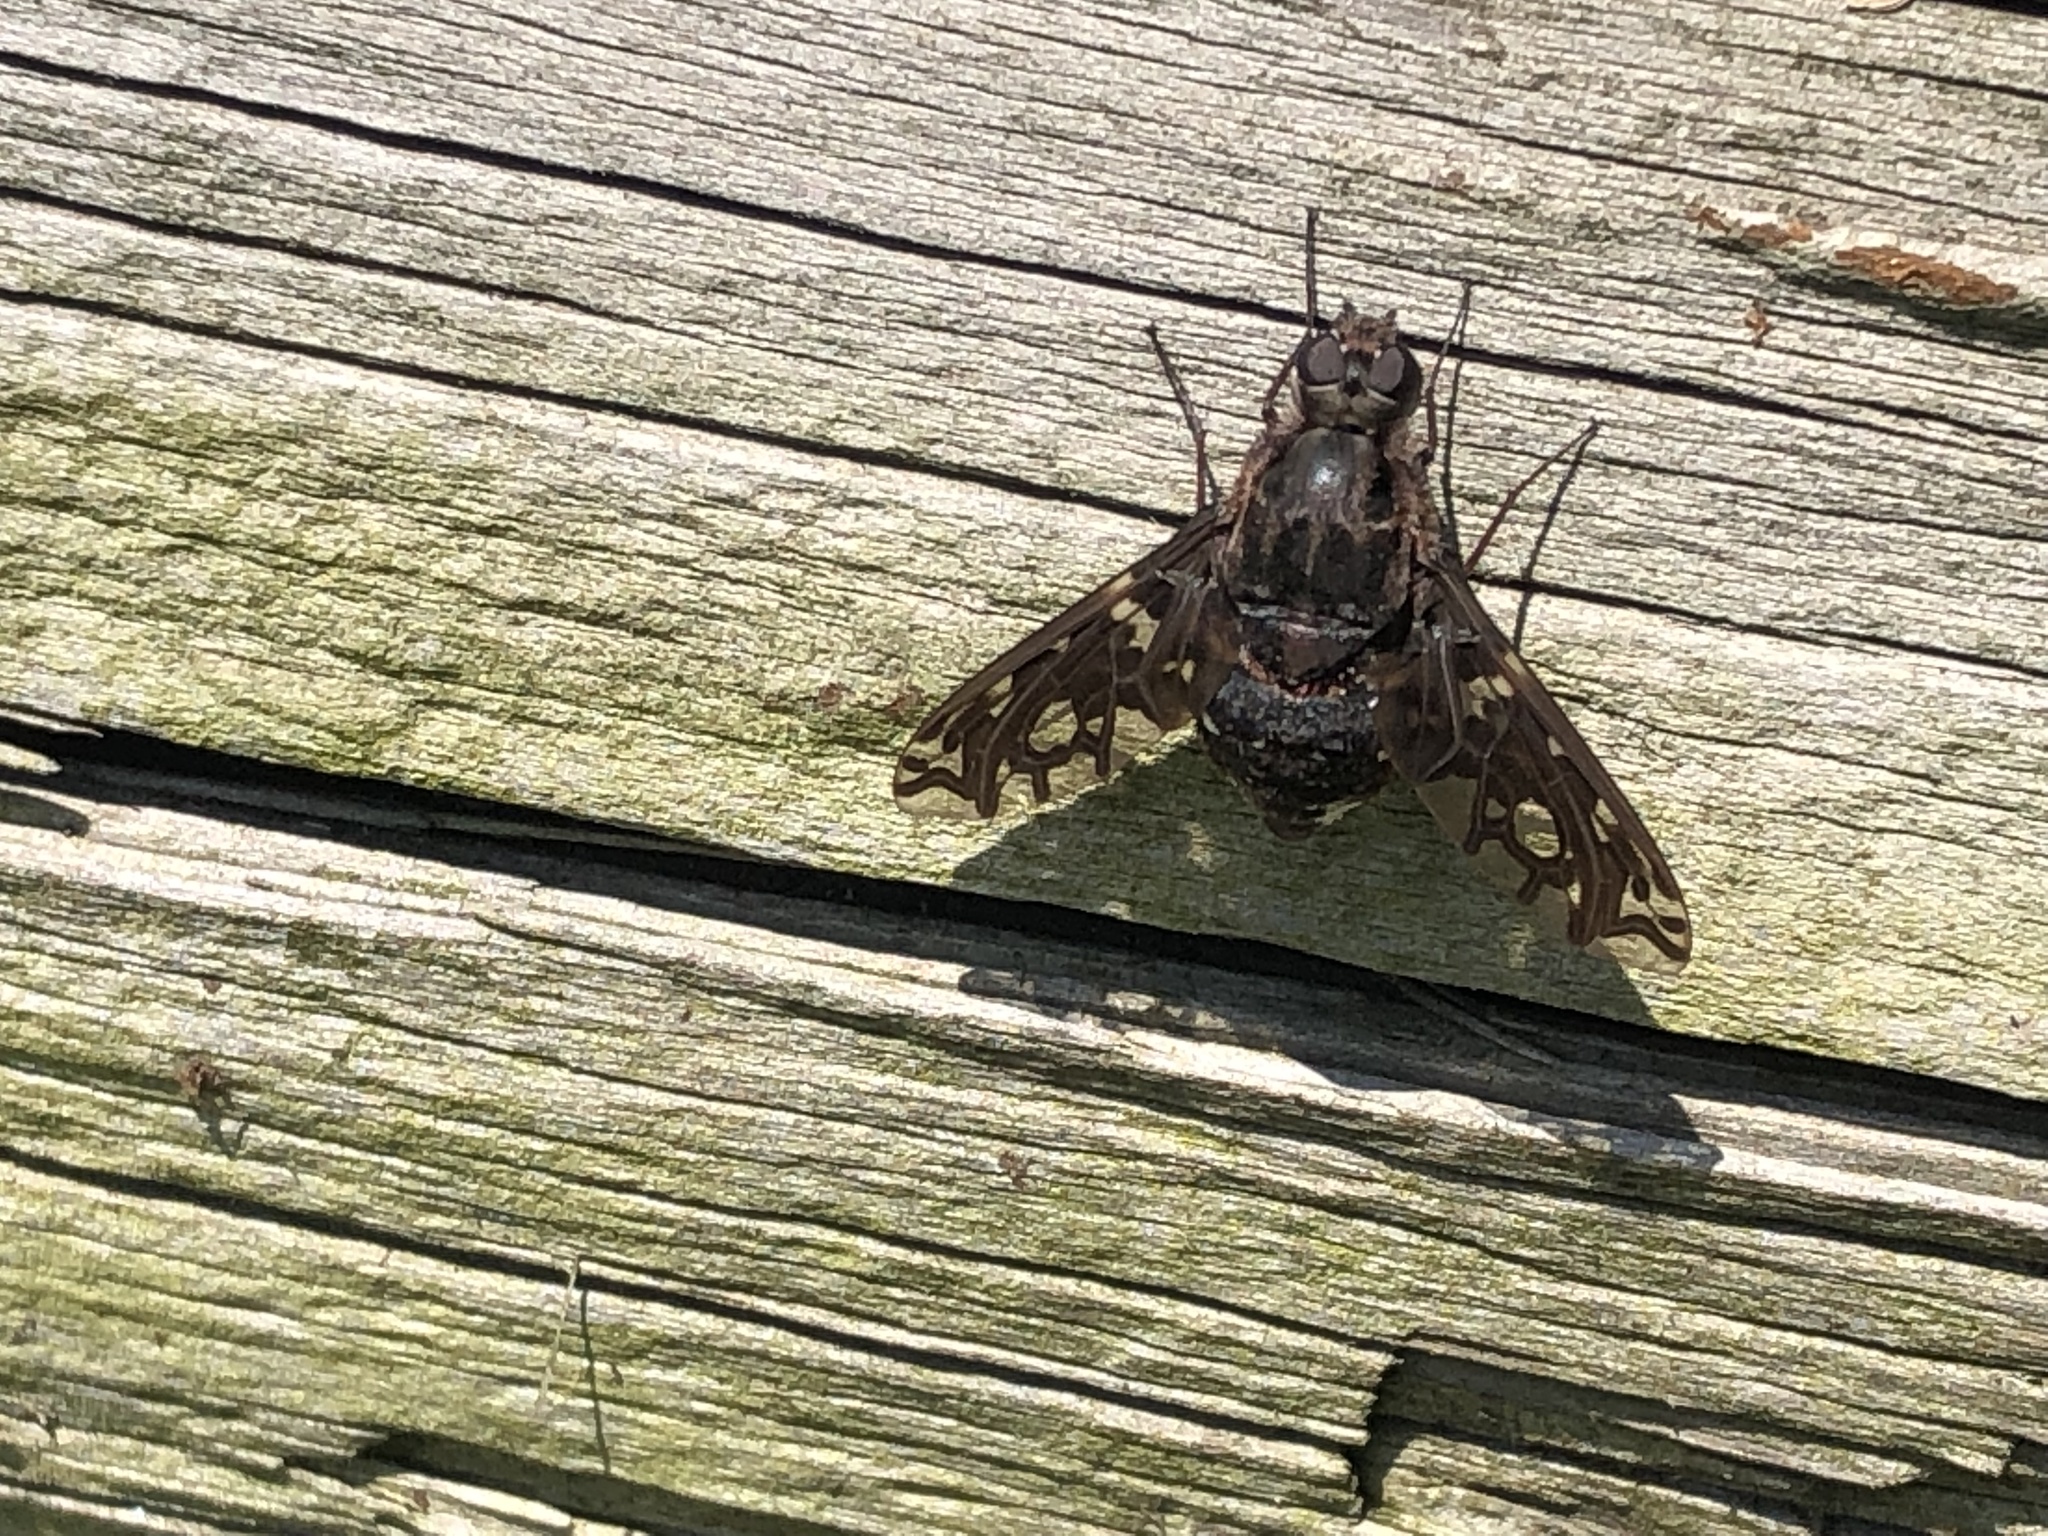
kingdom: Animalia
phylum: Arthropoda
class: Insecta
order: Diptera
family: Bombyliidae
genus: Xenox
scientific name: Xenox tigrinus
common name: Tiger bee fly
